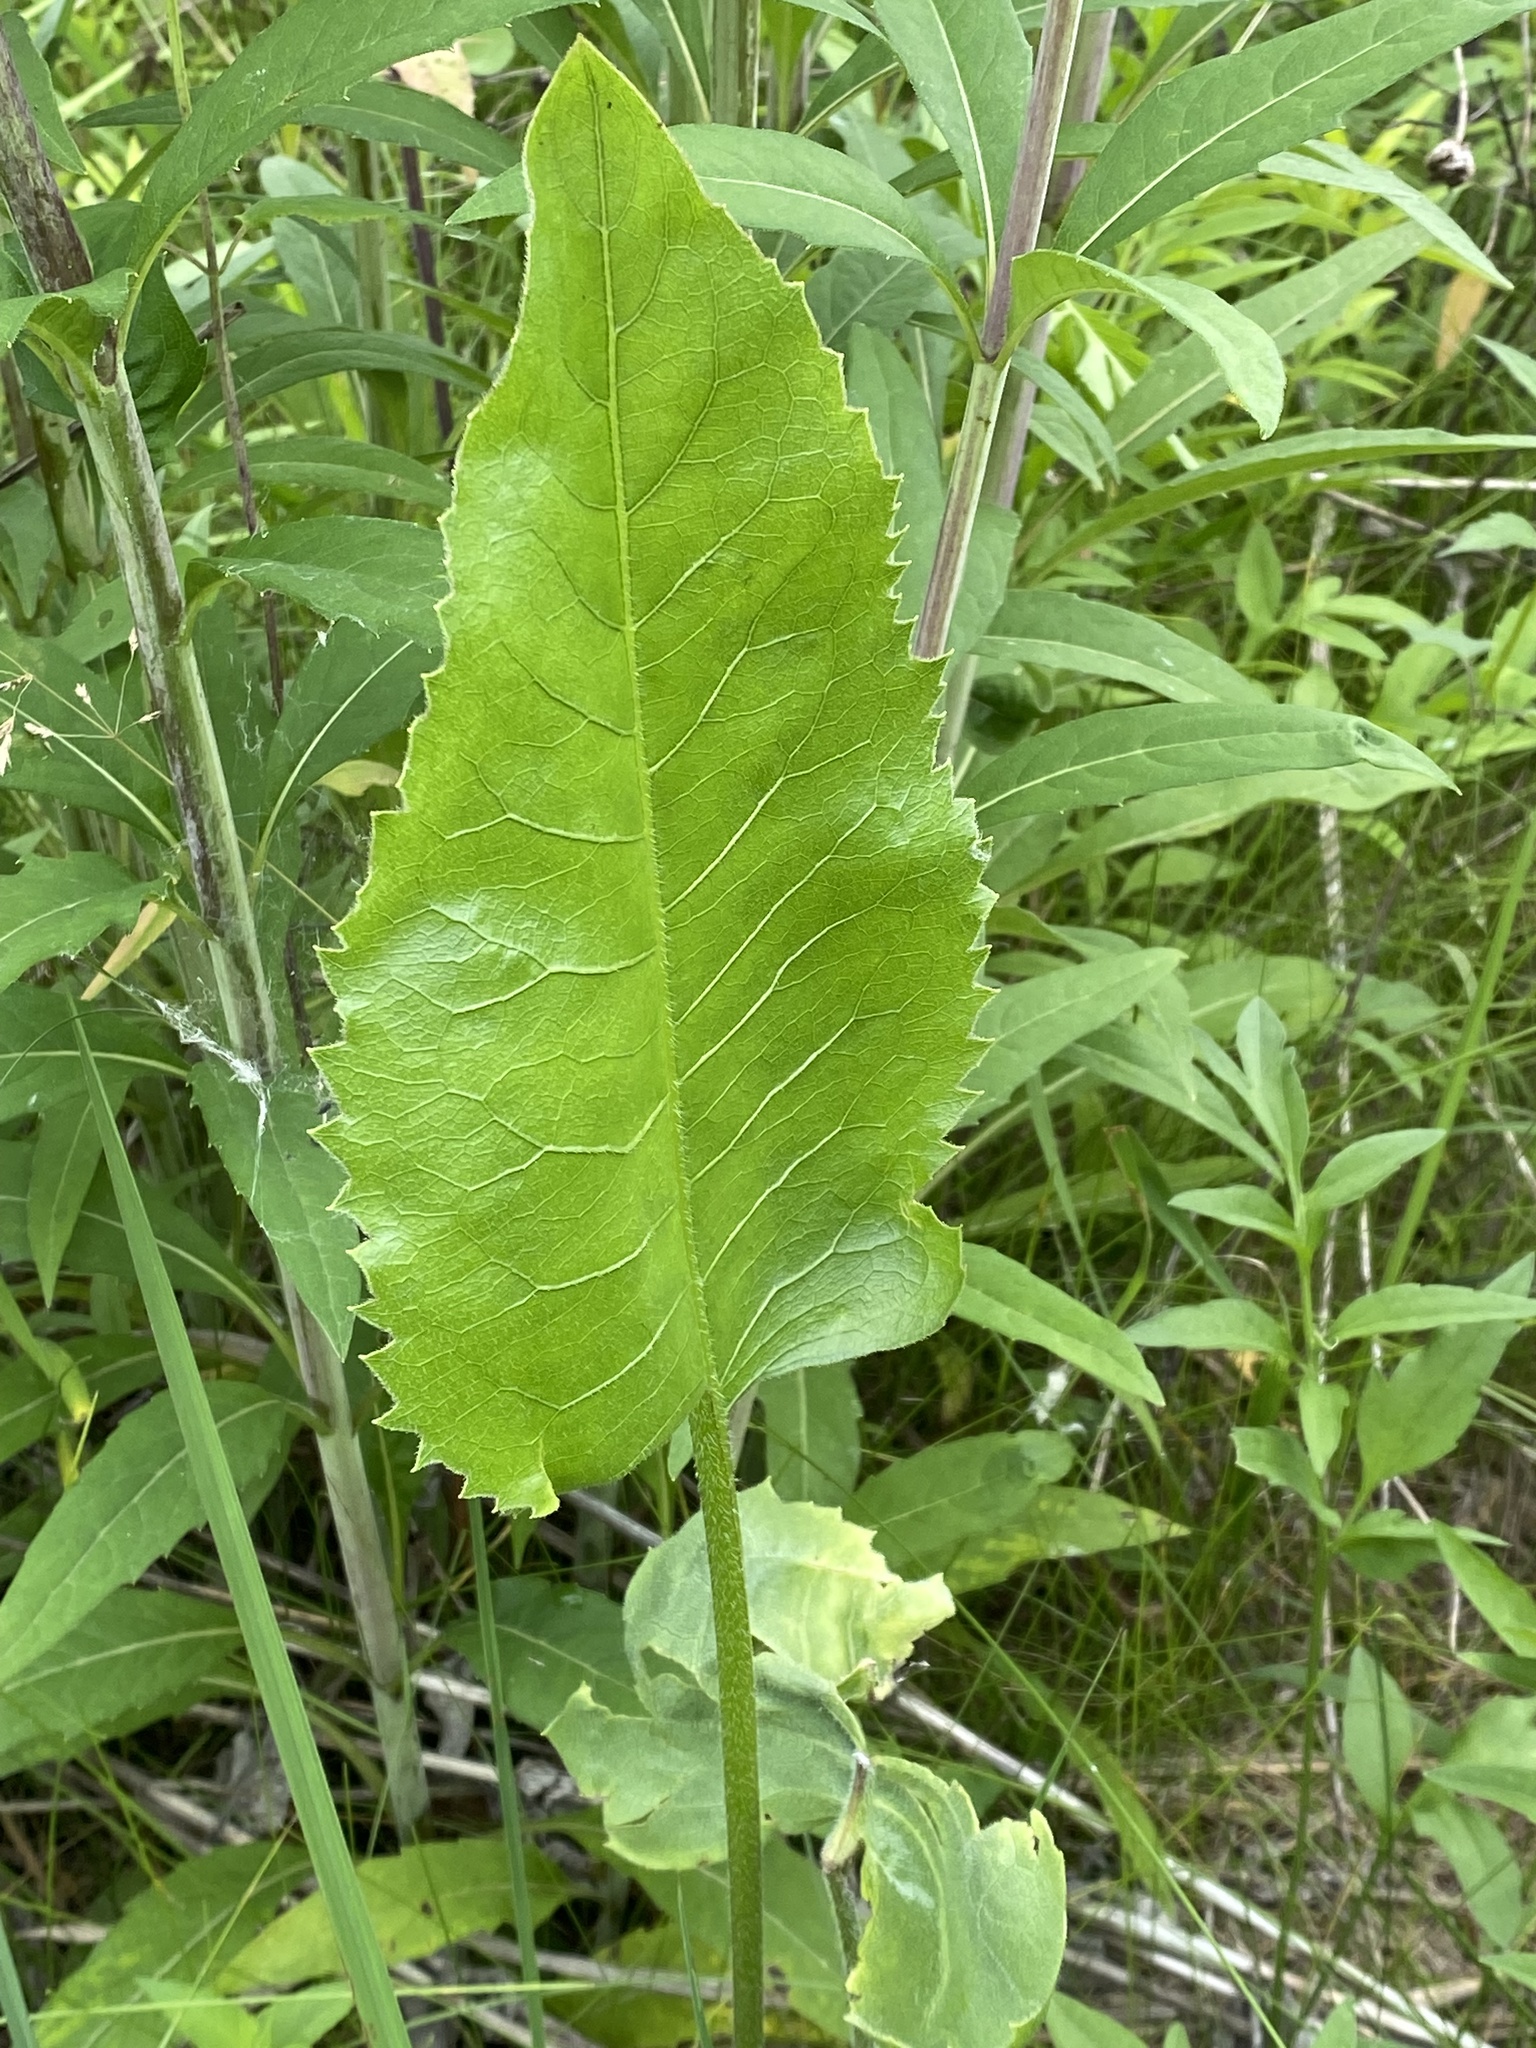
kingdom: Plantae
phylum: Tracheophyta
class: Magnoliopsida
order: Asterales
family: Asteraceae
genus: Silphium
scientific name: Silphium terebinthinaceum
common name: Basal-leaf rosinweed
